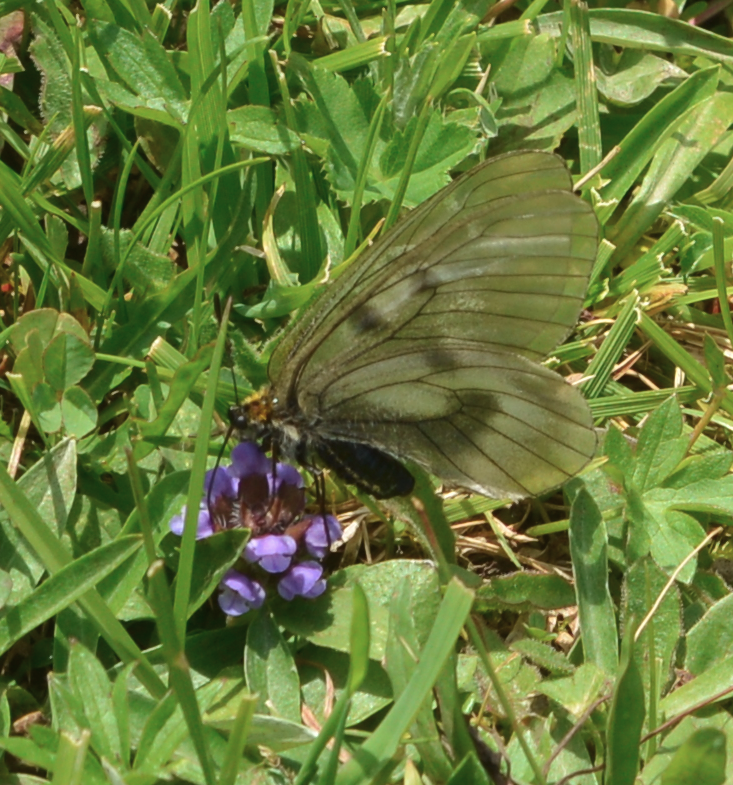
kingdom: Animalia
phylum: Arthropoda
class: Insecta
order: Lepidoptera
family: Papilionidae
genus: Parnassius
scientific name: Parnassius mnemosyne
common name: Clouded apollo
